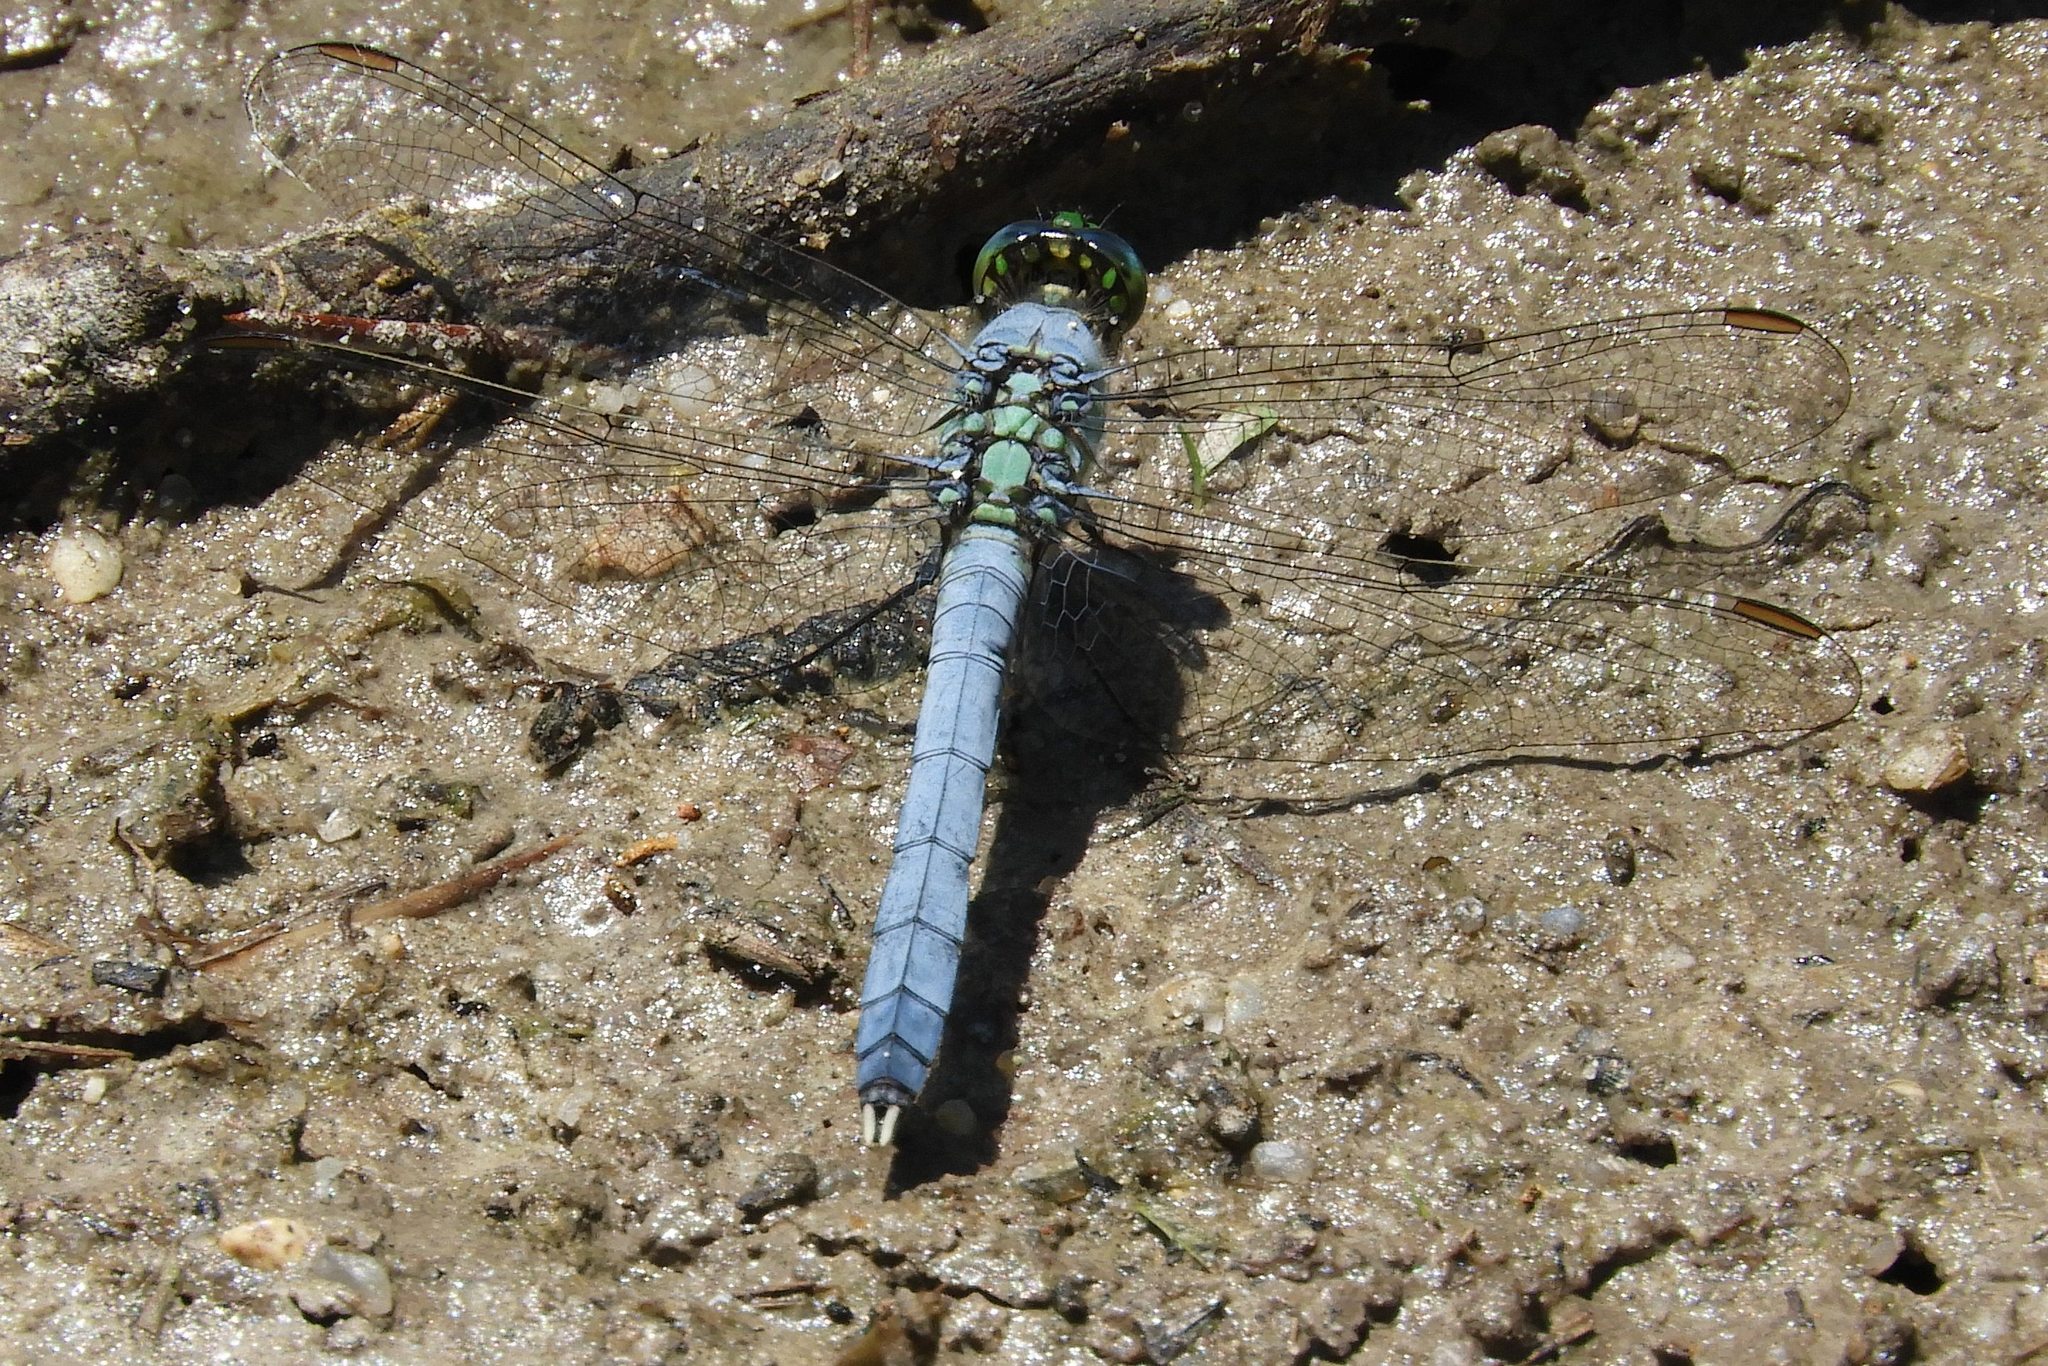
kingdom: Animalia
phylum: Arthropoda
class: Insecta
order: Odonata
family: Libellulidae
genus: Erythemis
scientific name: Erythemis simplicicollis
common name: Eastern pondhawk
